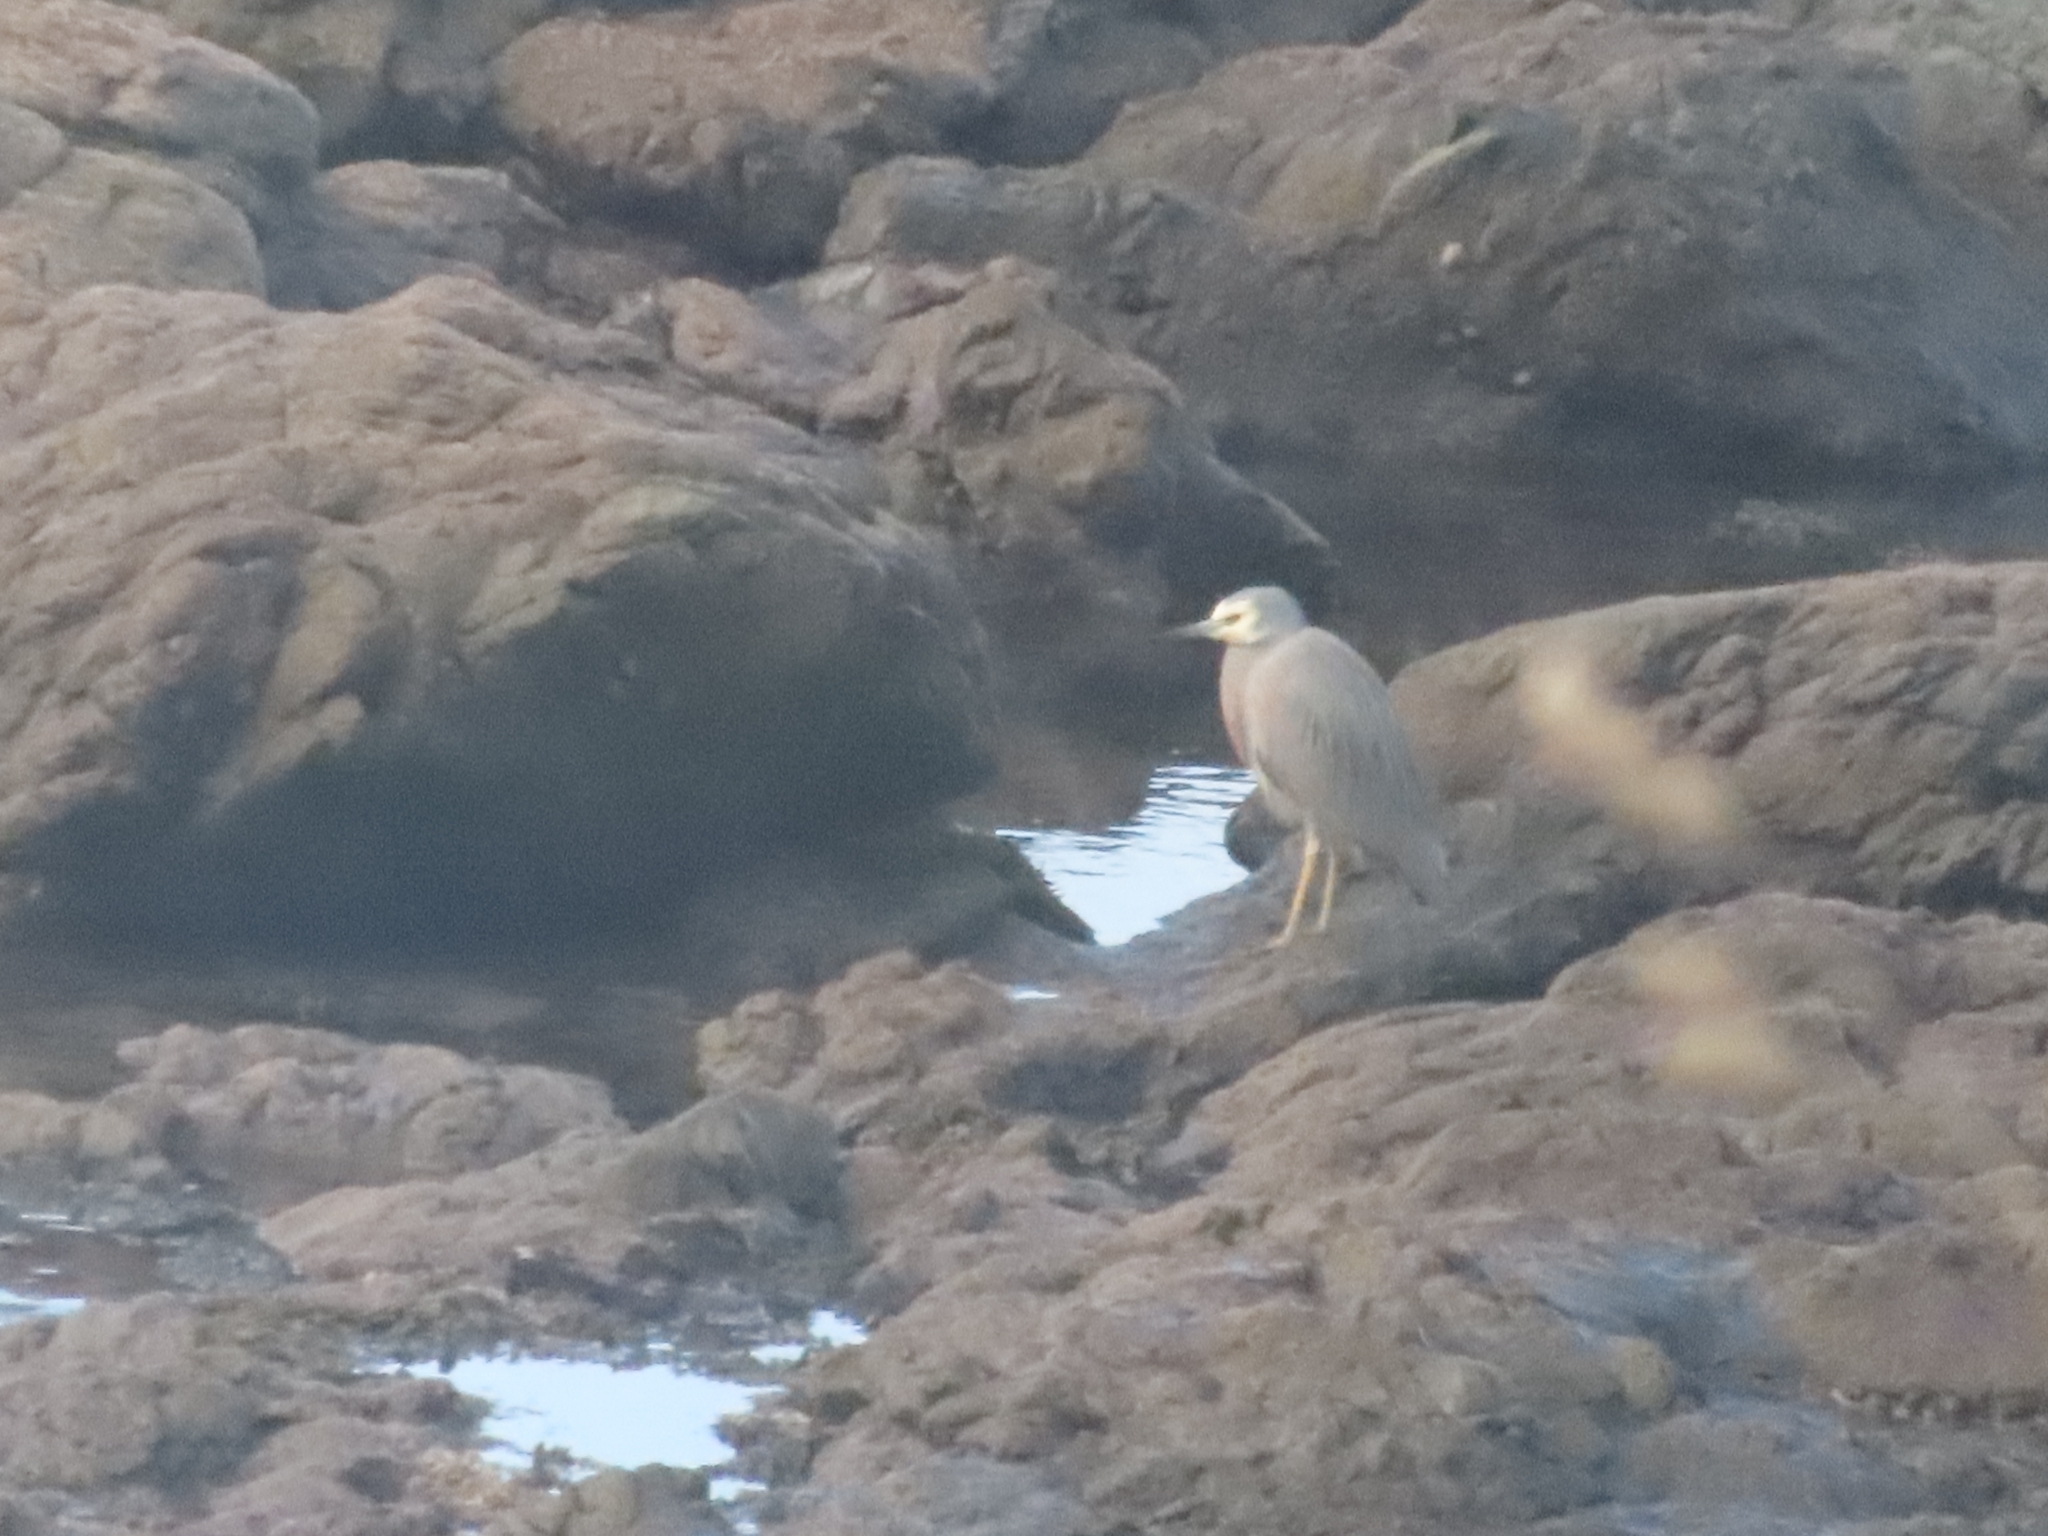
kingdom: Animalia
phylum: Chordata
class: Aves
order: Pelecaniformes
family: Ardeidae
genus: Egretta
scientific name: Egretta novaehollandiae
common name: White-faced heron
